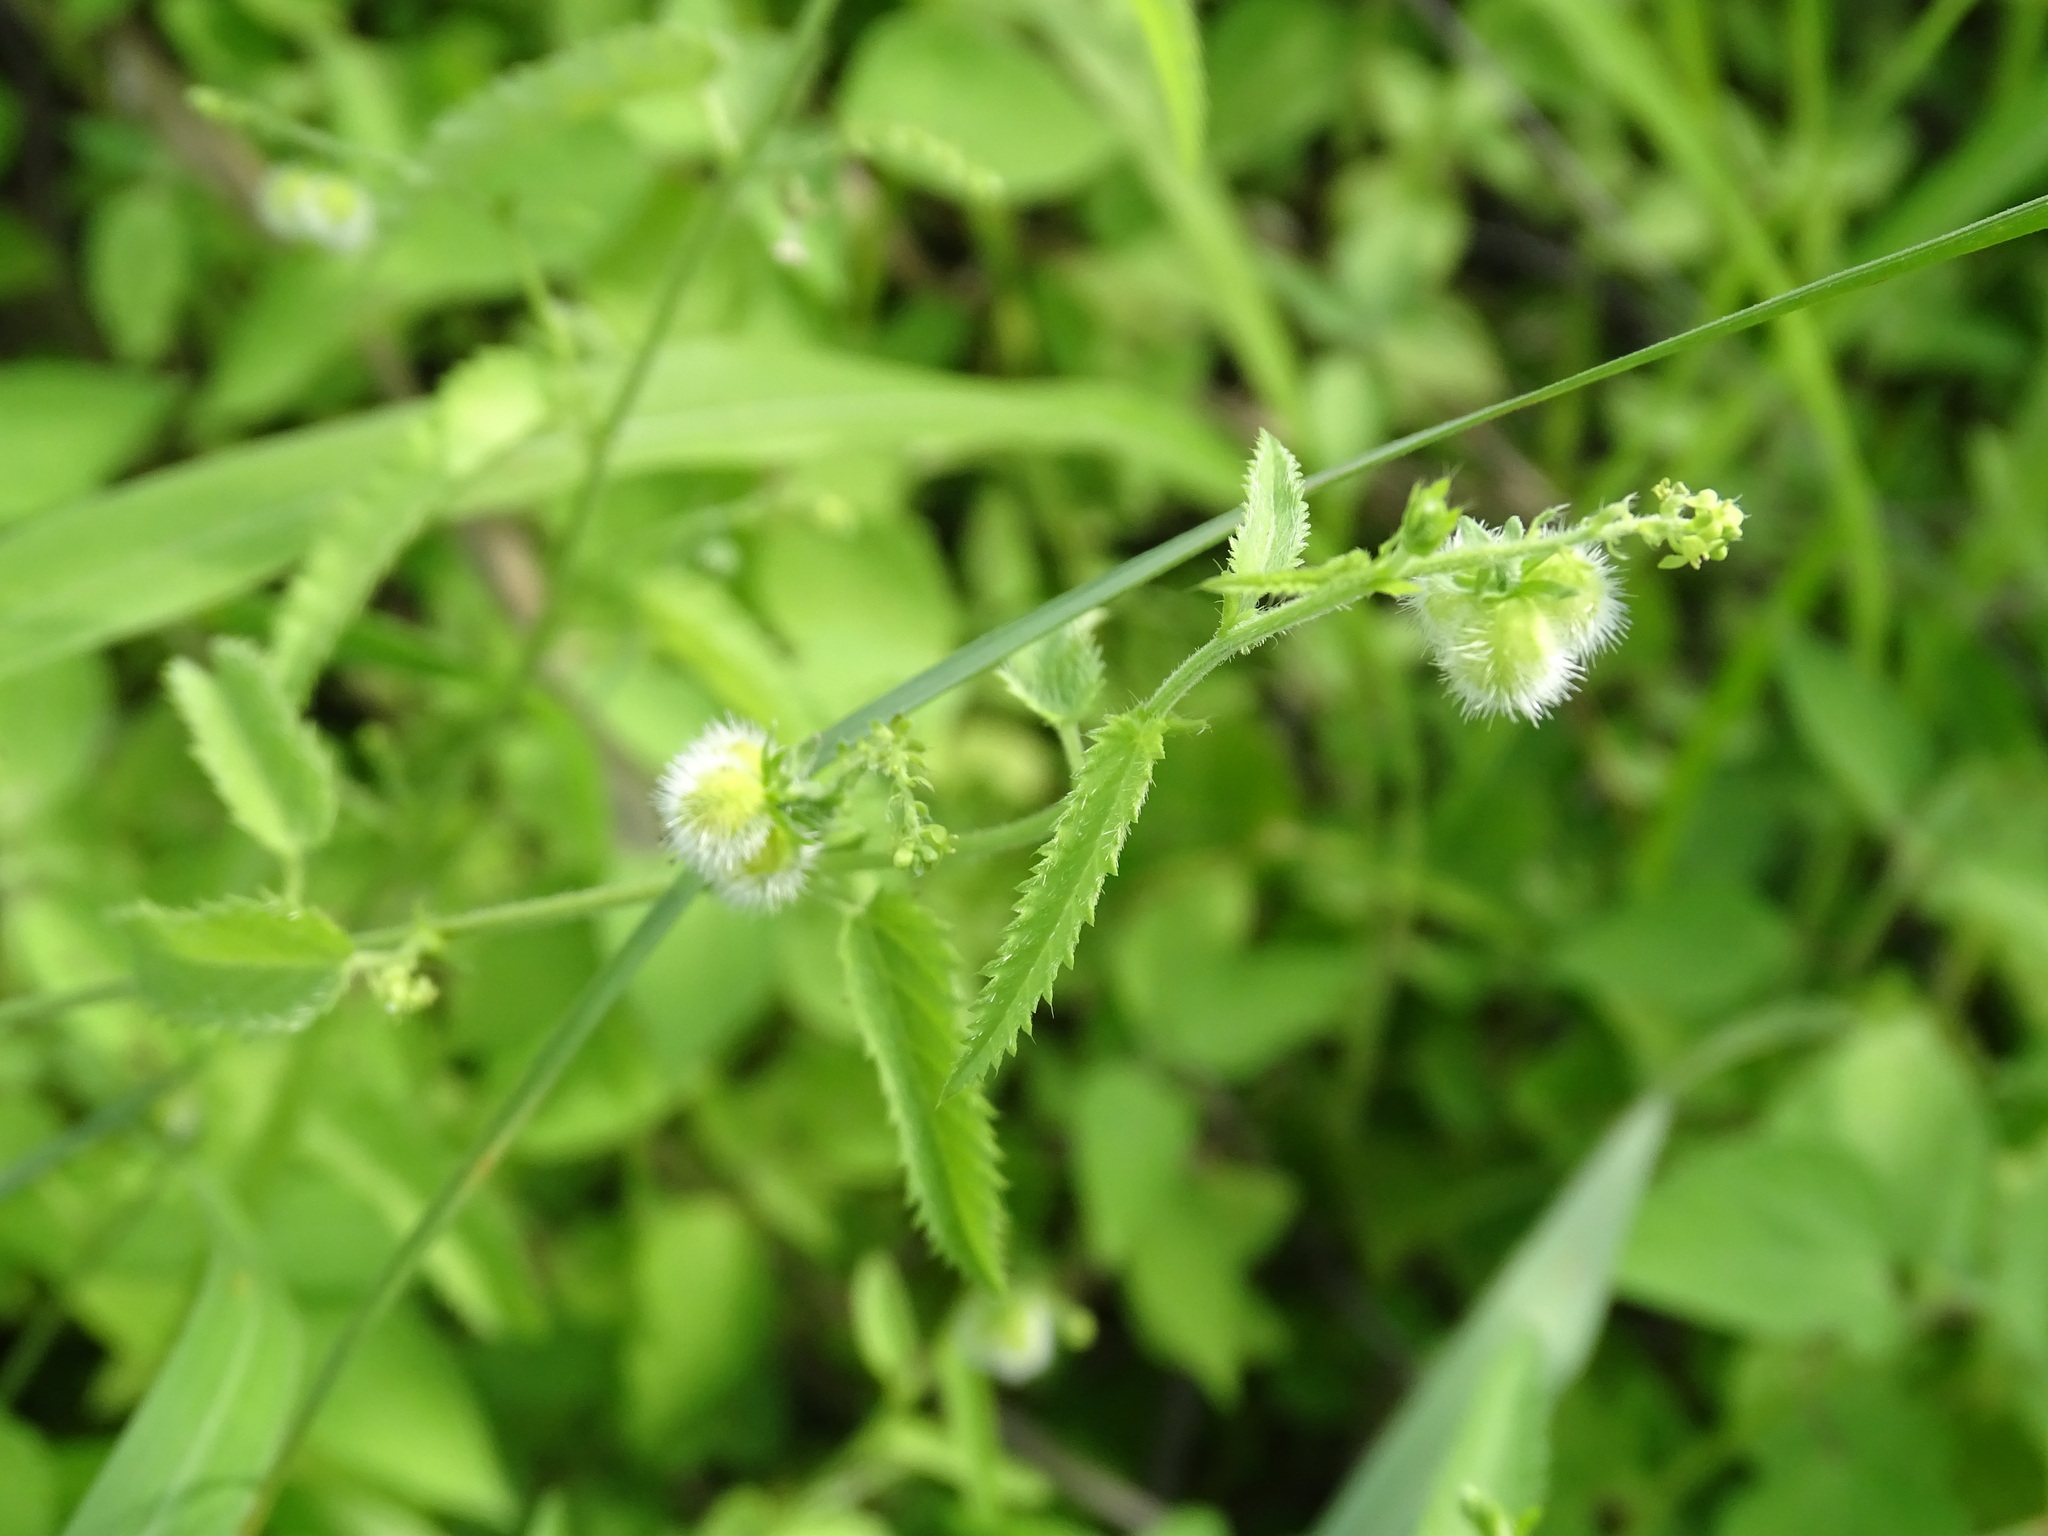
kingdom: Plantae
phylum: Tracheophyta
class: Magnoliopsida
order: Malpighiales
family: Euphorbiaceae
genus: Tragia
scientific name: Tragia nepetifolia
